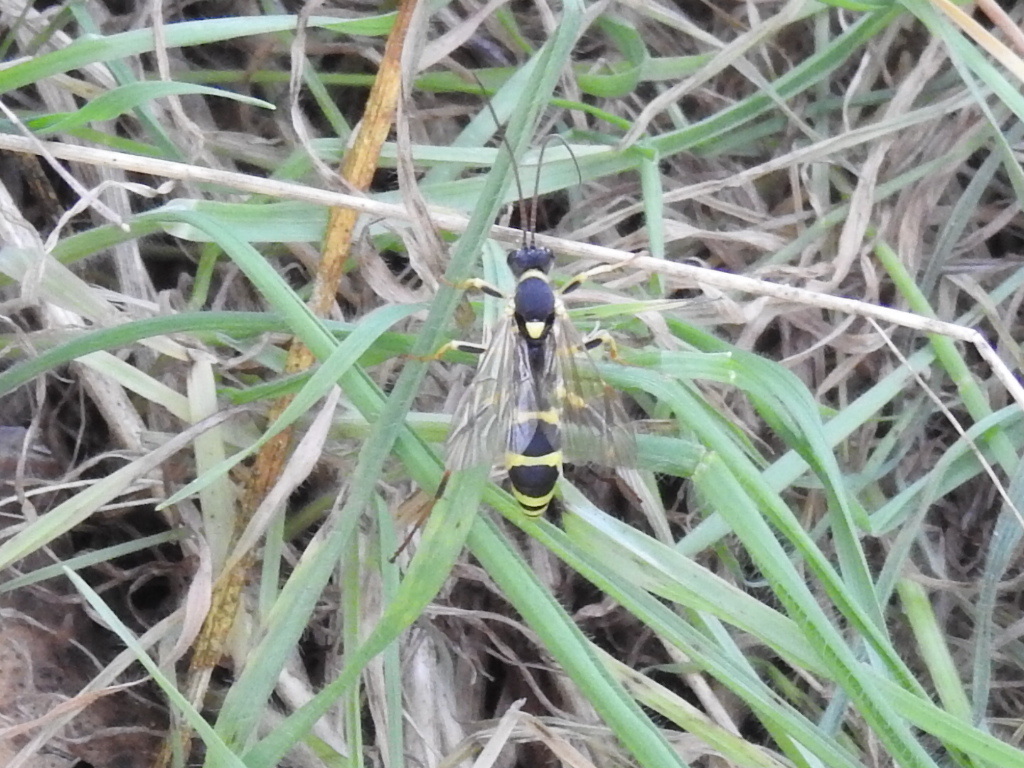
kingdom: Animalia
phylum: Arthropoda
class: Insecta
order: Hymenoptera
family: Ichneumonidae
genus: Amblyteles
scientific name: Amblyteles armatorius
